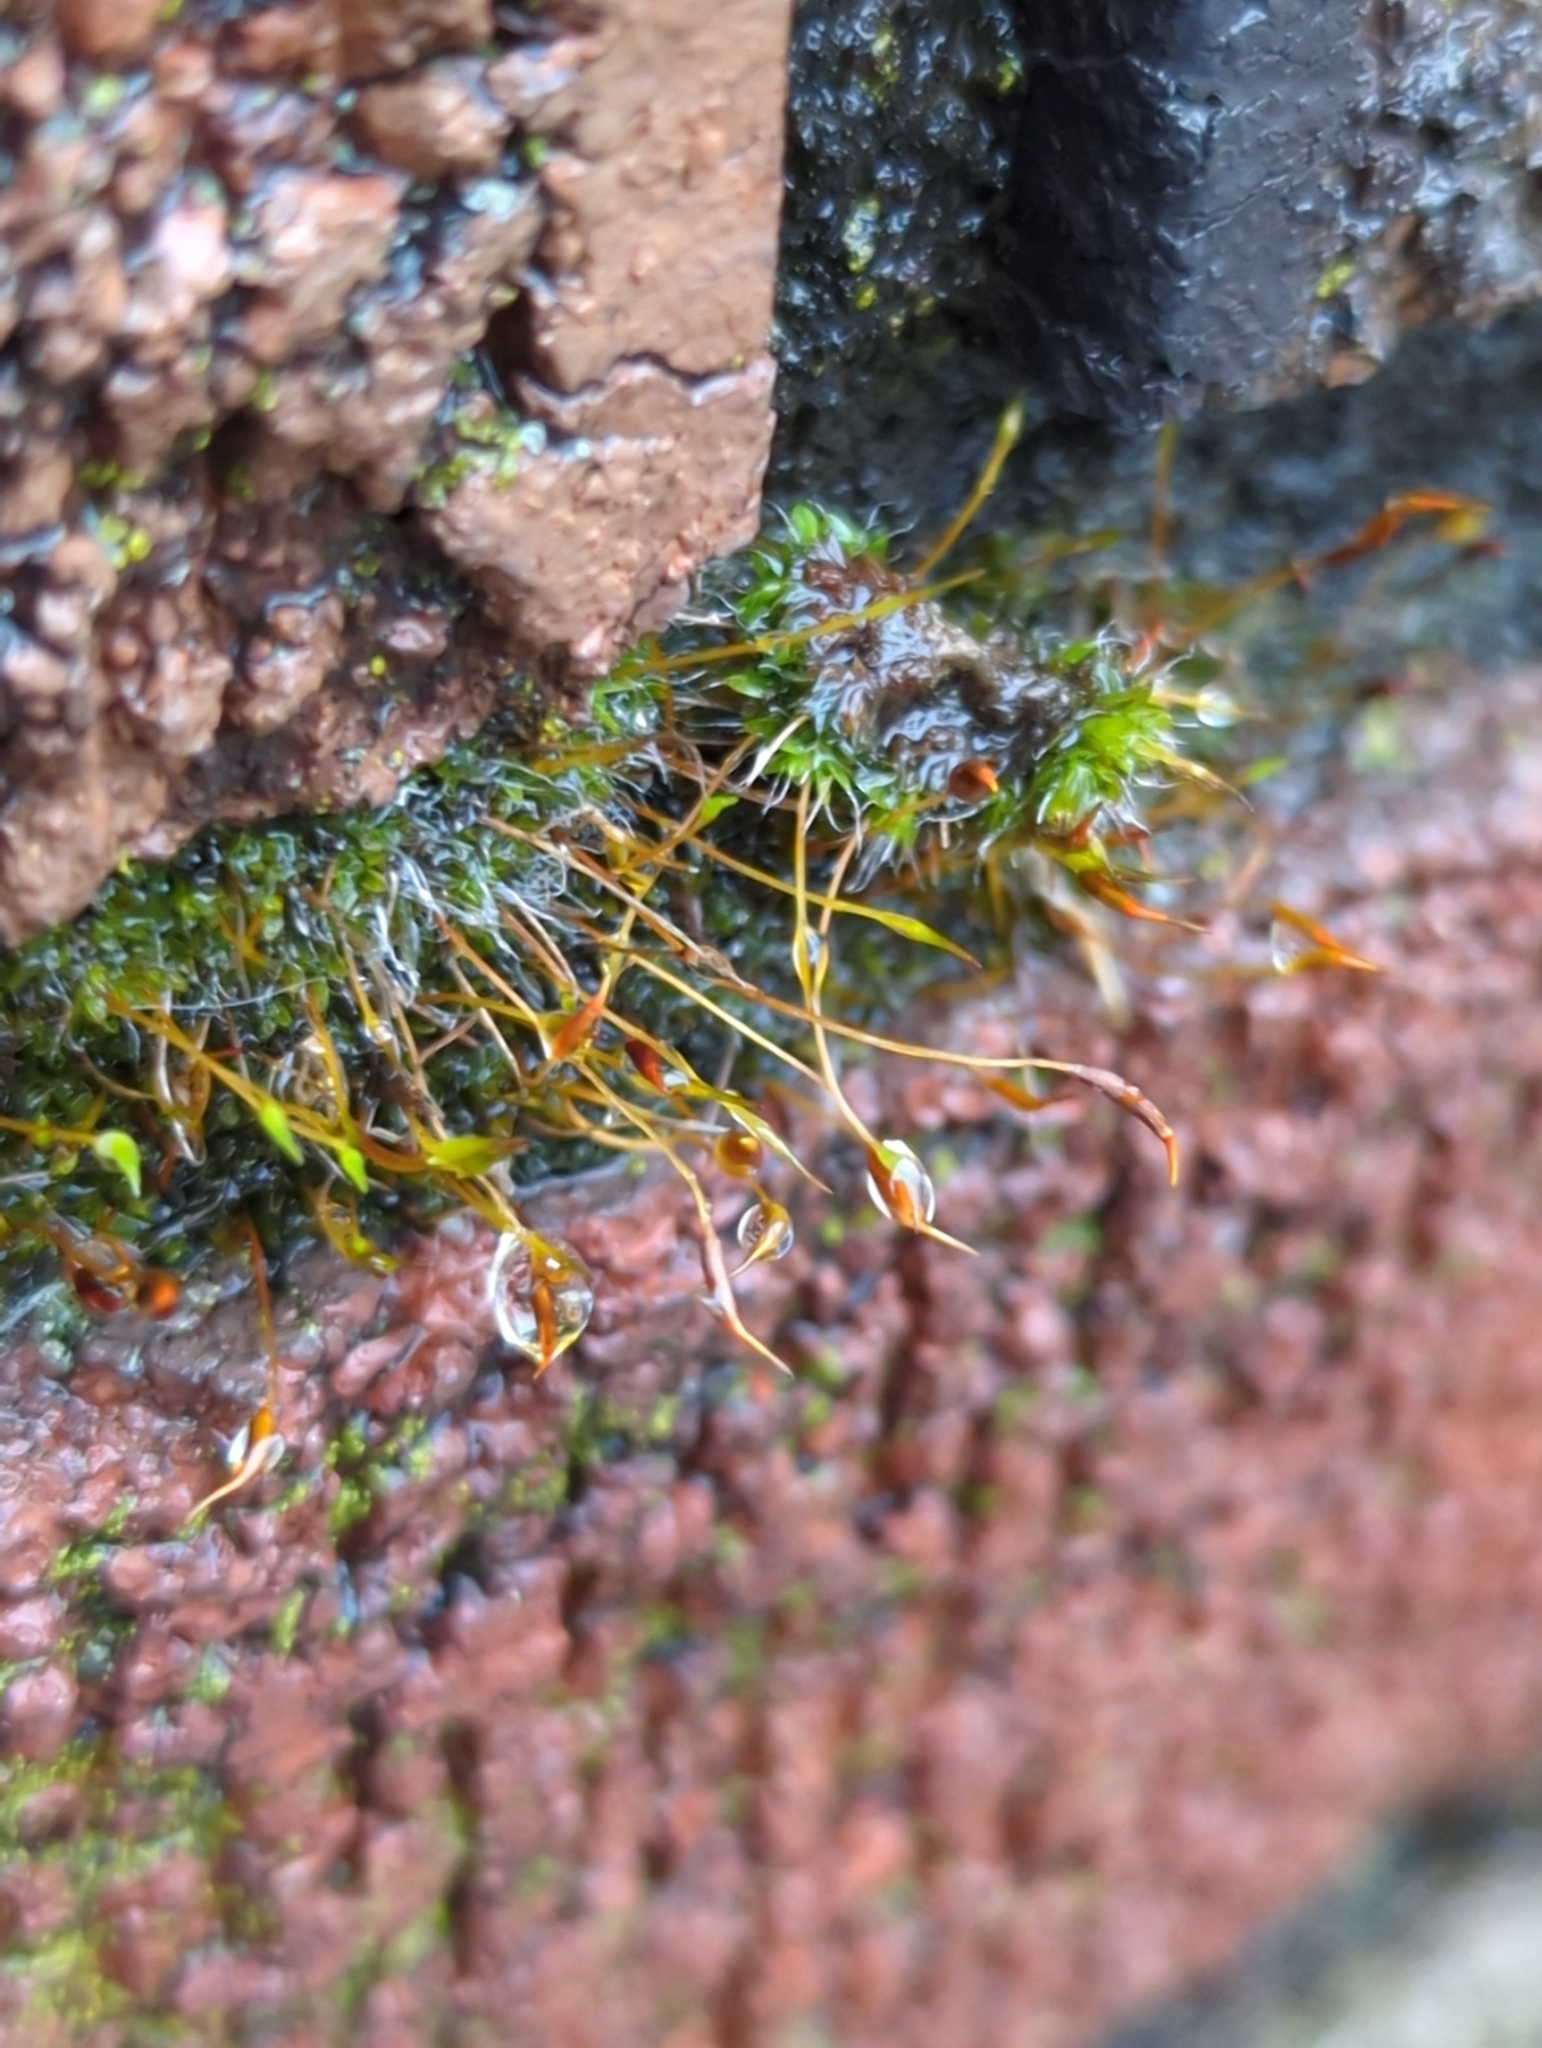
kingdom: Plantae
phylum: Bryophyta
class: Bryopsida
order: Pottiales
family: Pottiaceae
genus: Tortula
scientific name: Tortula muralis
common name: Wall screw-moss
